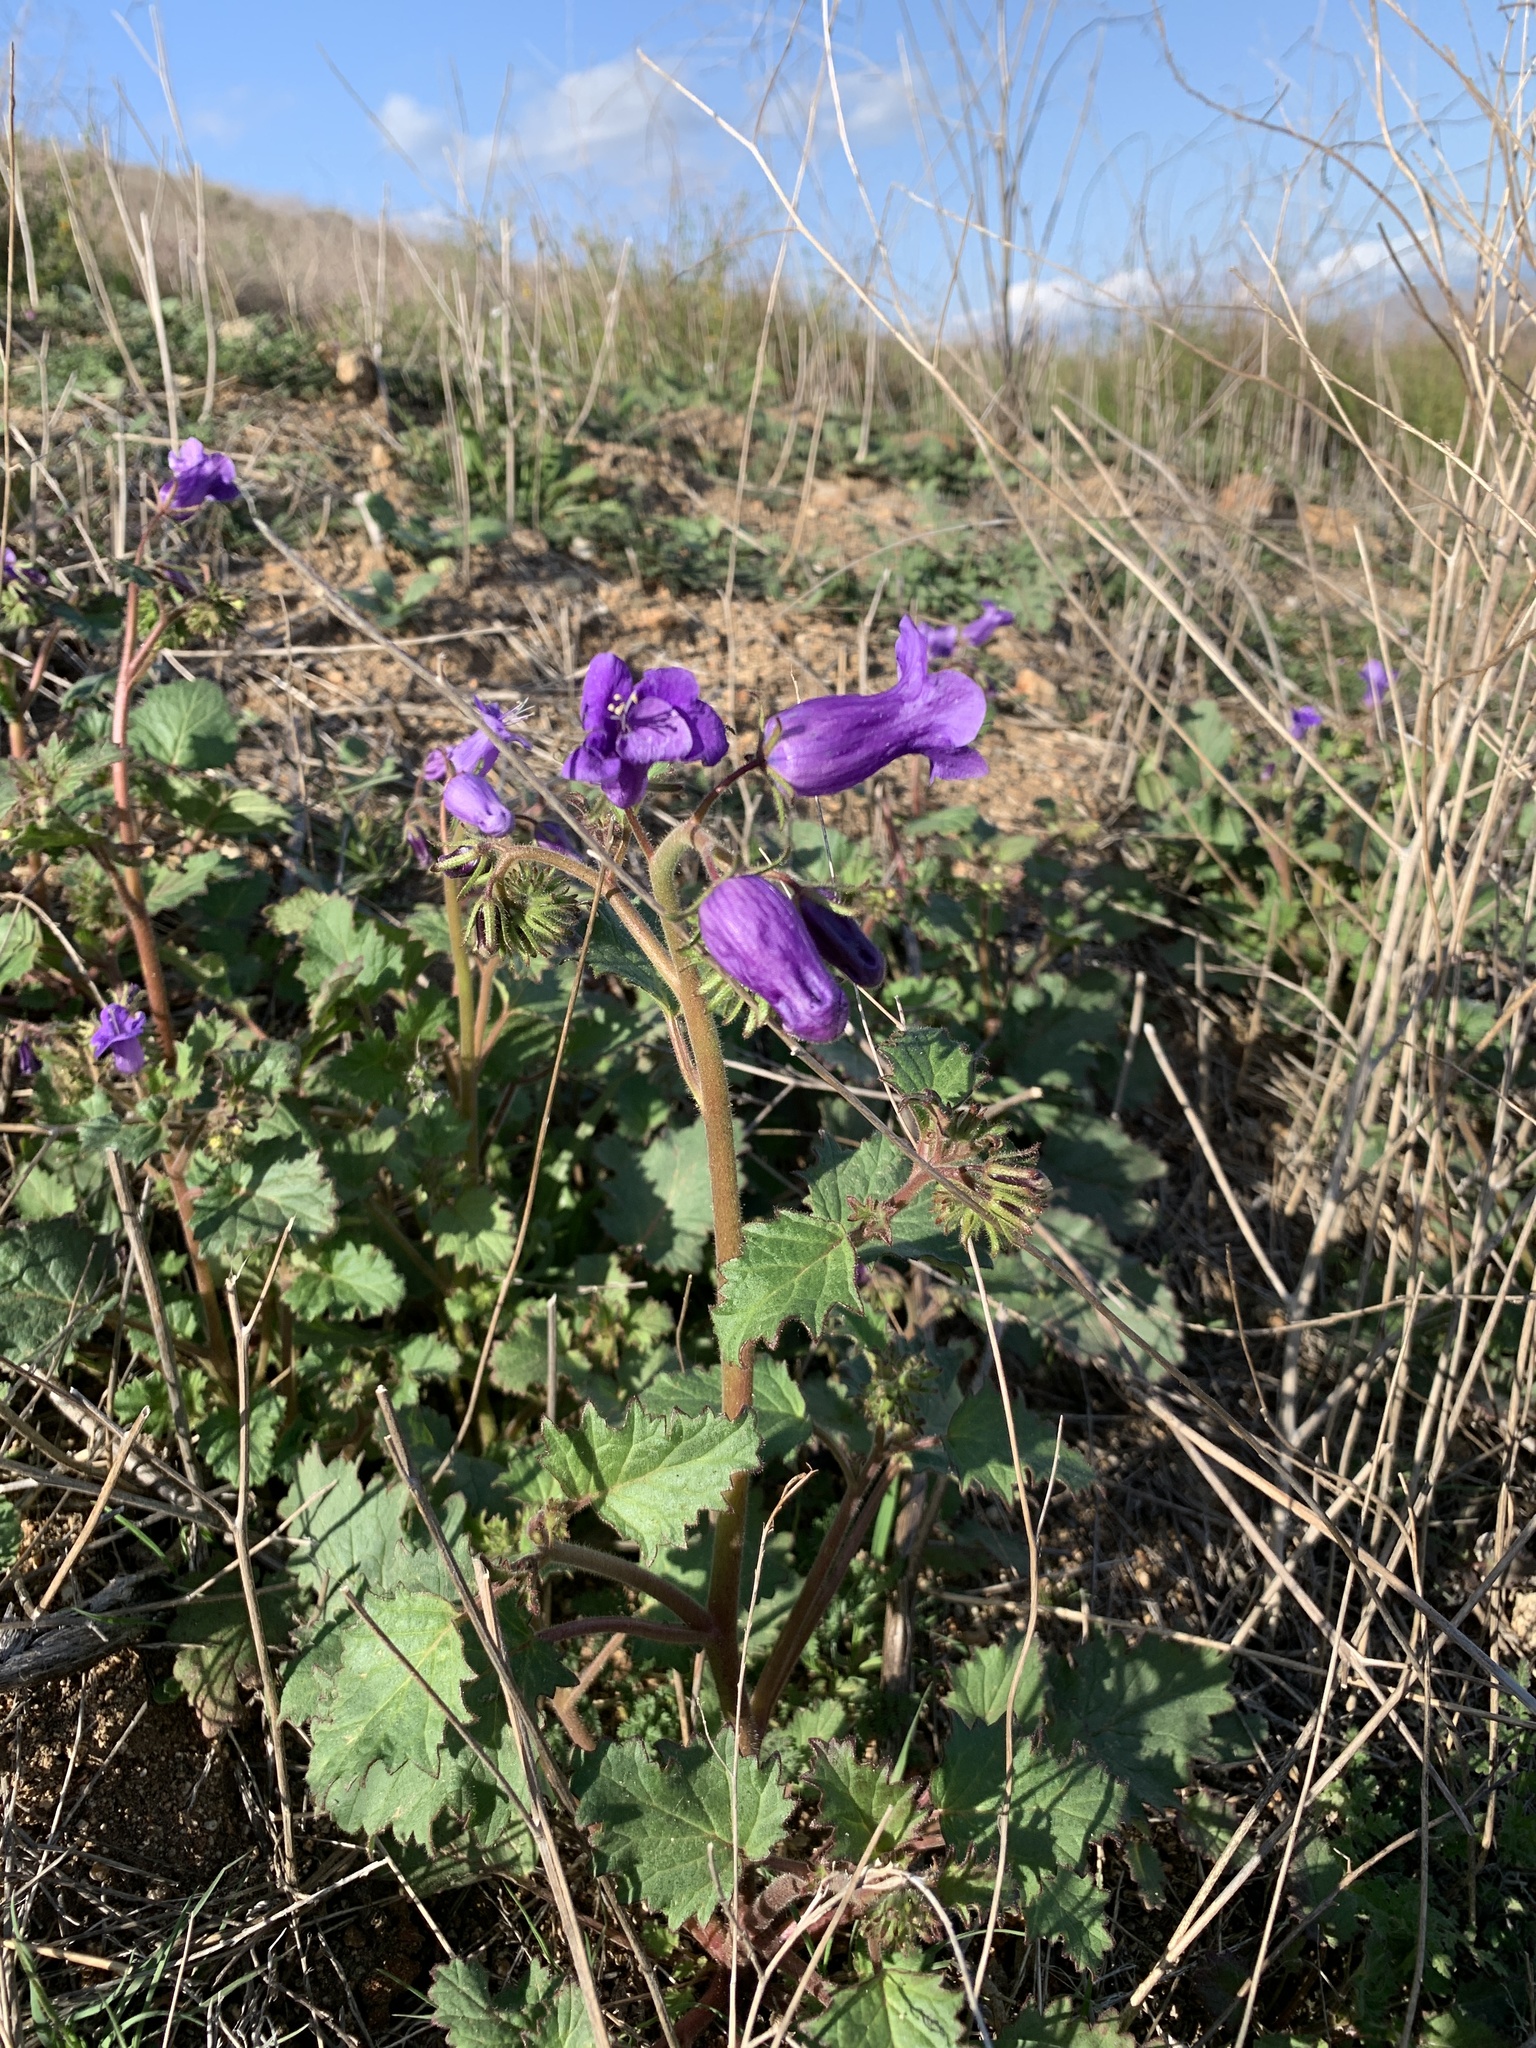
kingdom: Plantae
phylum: Tracheophyta
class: Magnoliopsida
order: Boraginales
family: Hydrophyllaceae
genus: Phacelia
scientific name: Phacelia minor
